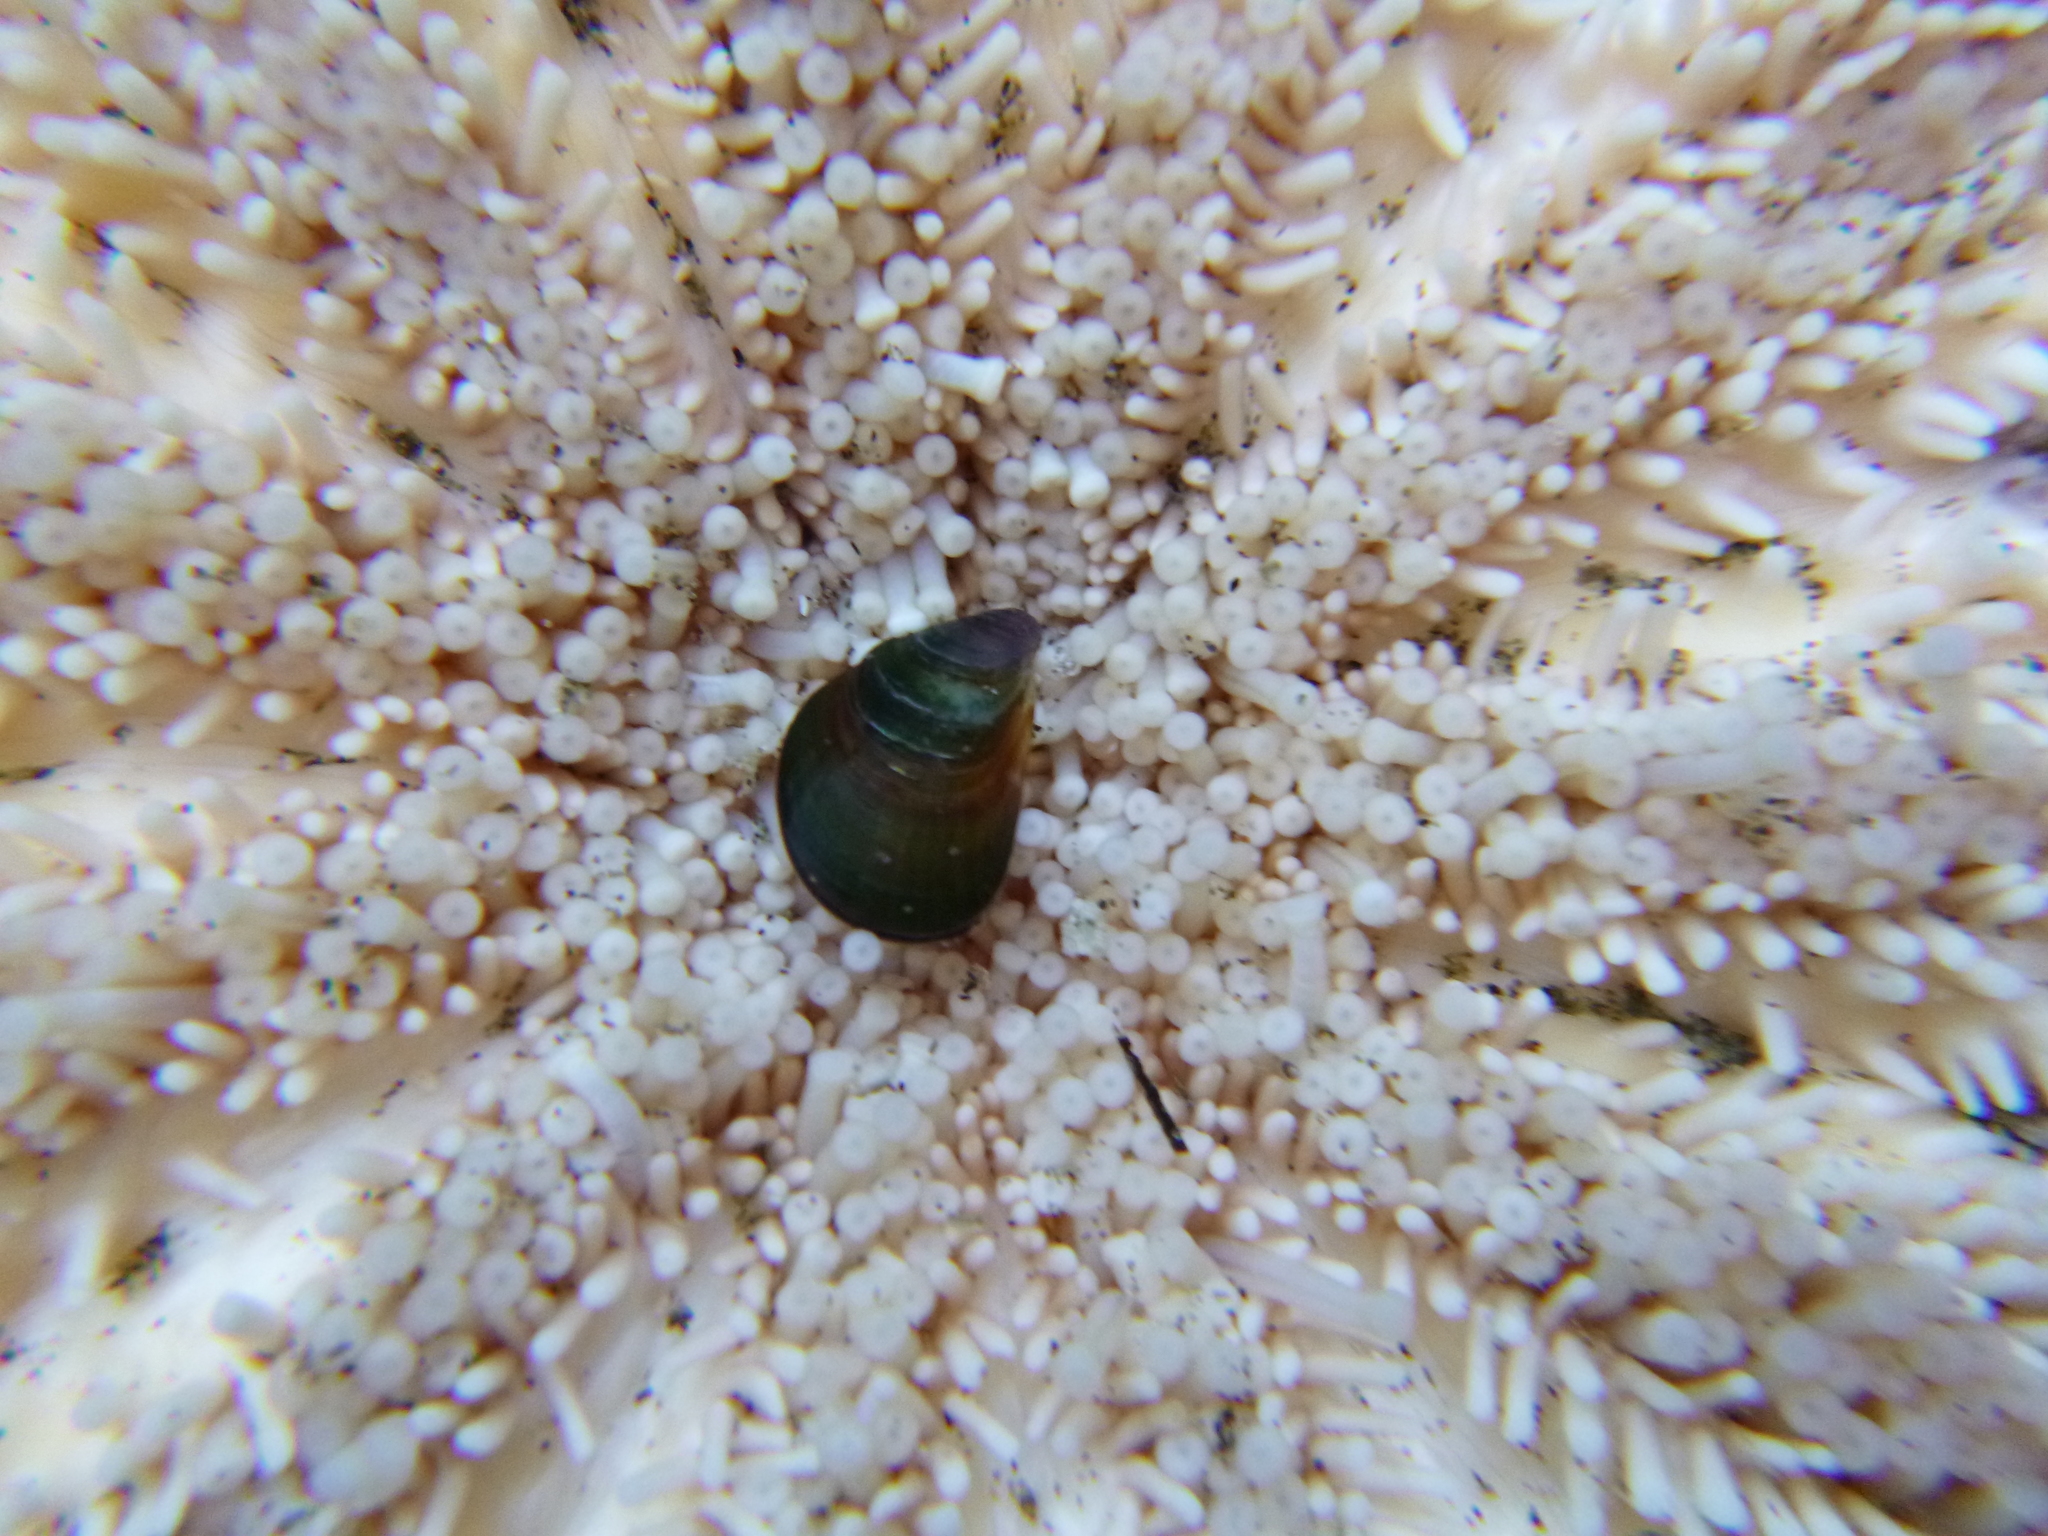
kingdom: Animalia
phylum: Mollusca
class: Bivalvia
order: Mytilida
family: Mytilidae
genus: Perna
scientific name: Perna canaliculus
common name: New zealand greenshelltm
